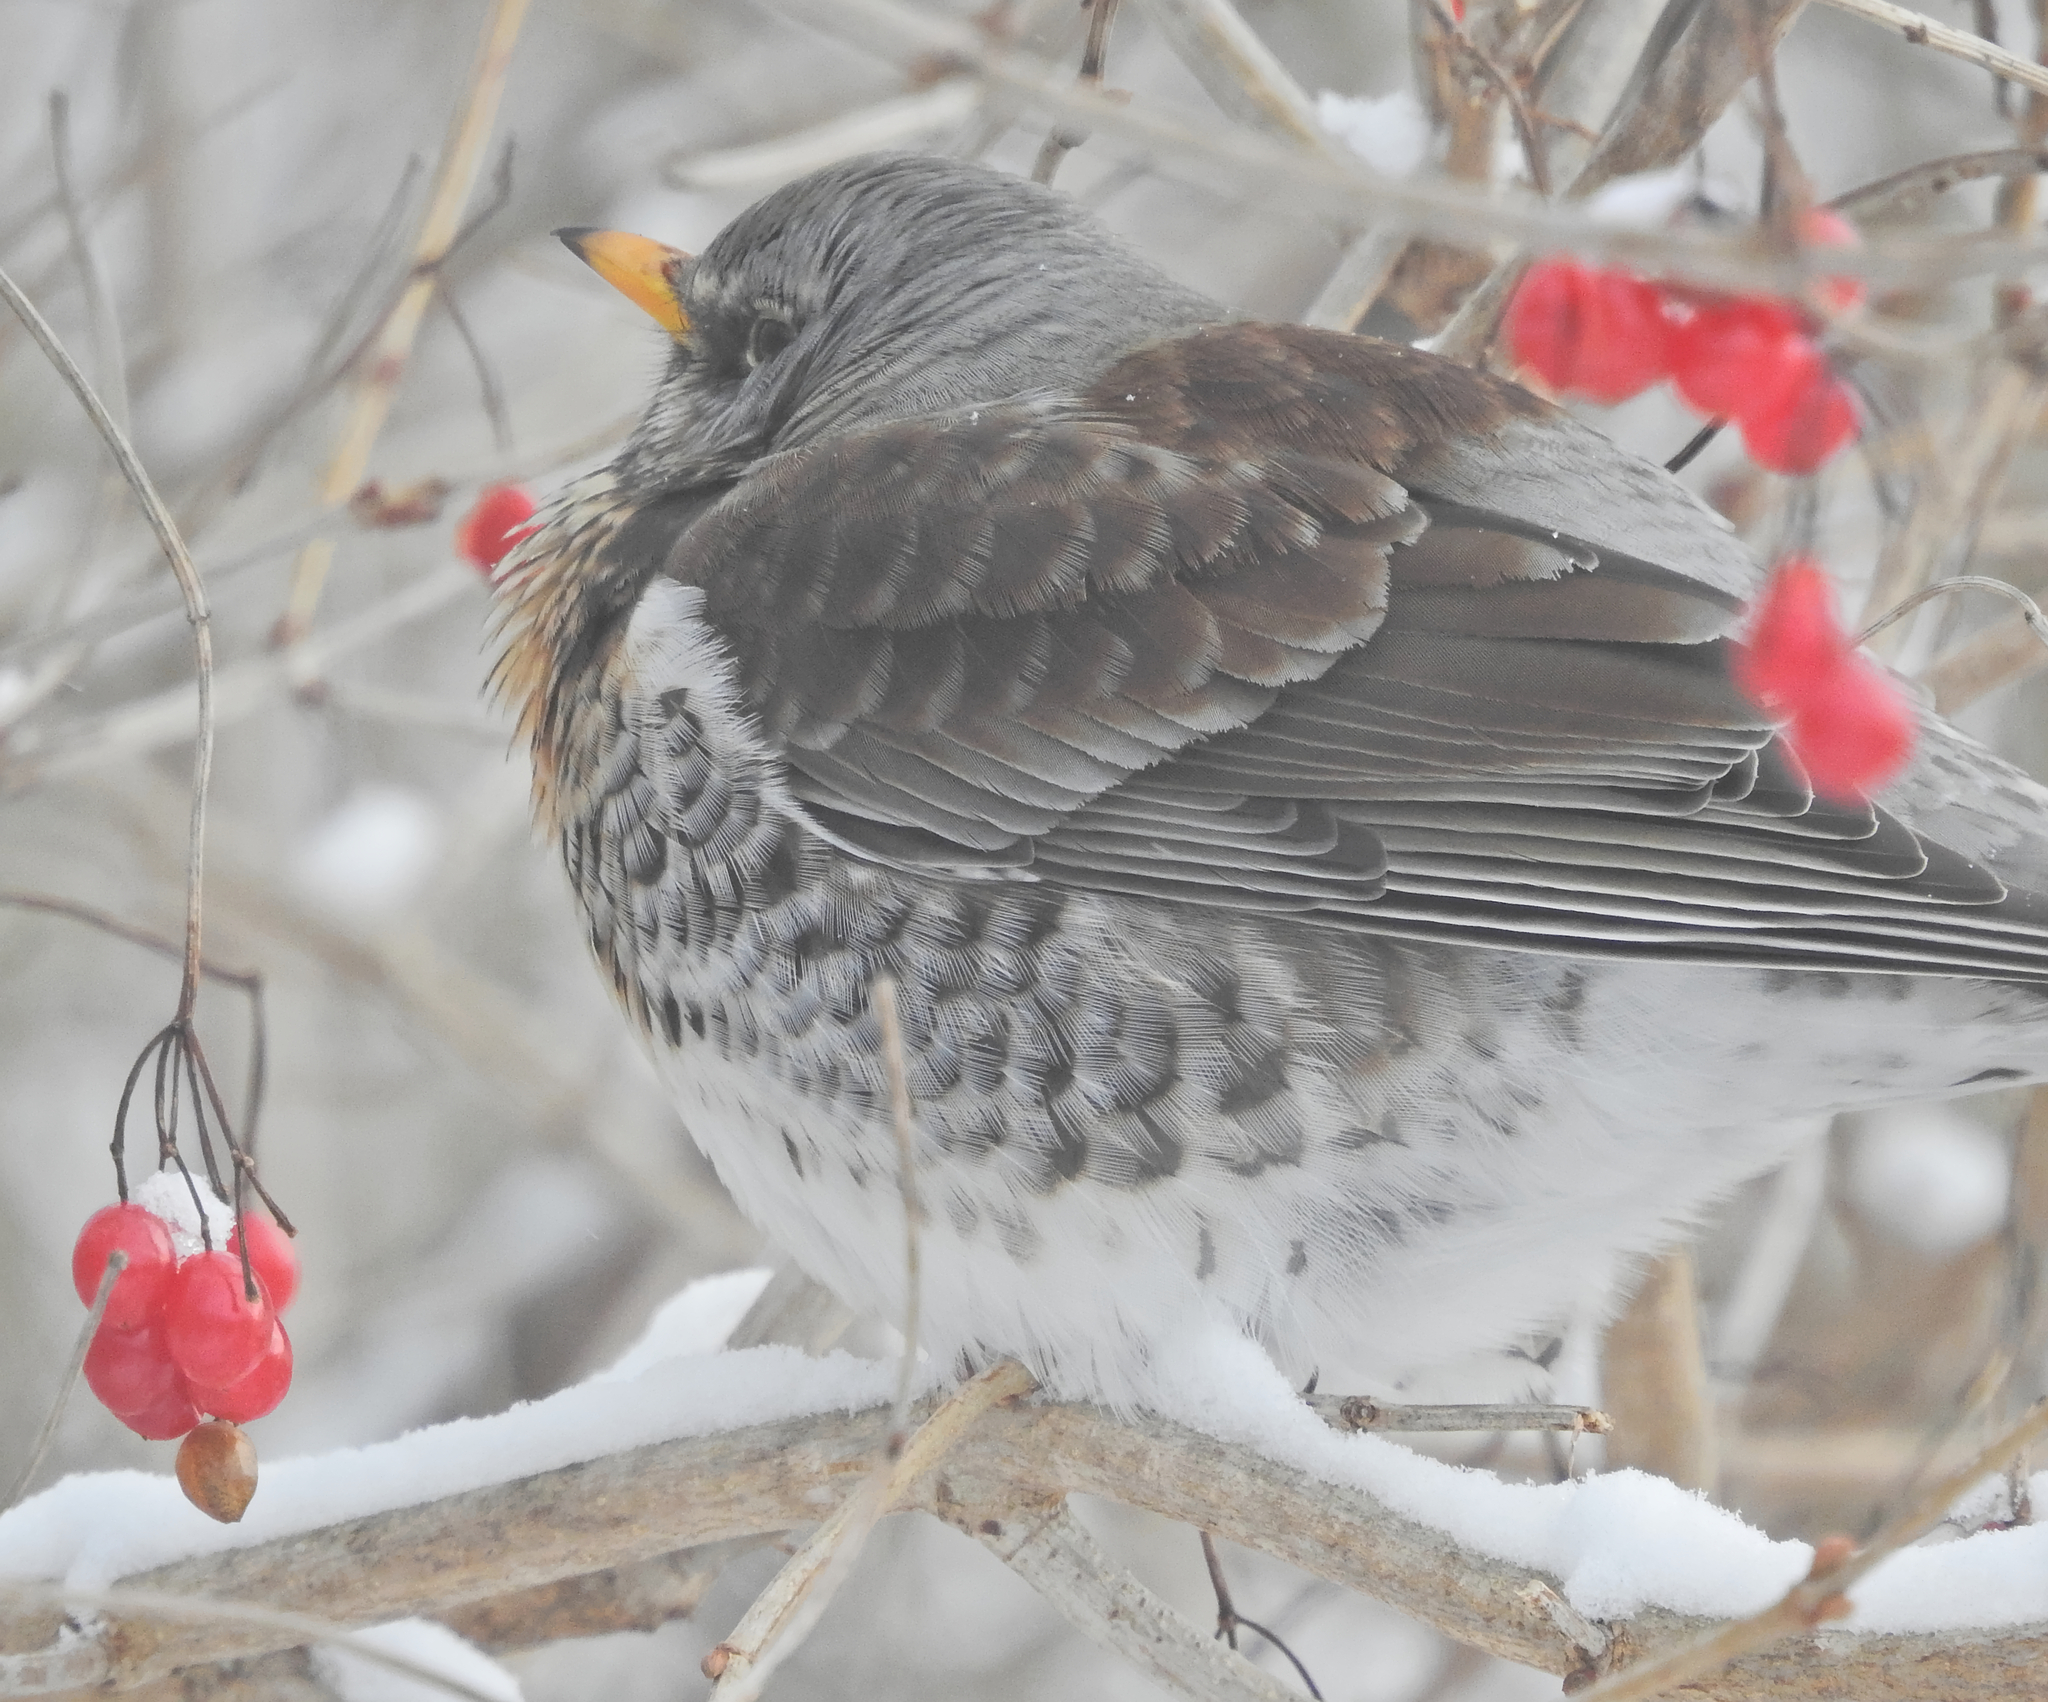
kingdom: Animalia
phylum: Chordata
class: Aves
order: Passeriformes
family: Turdidae
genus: Turdus
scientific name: Turdus pilaris
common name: Fieldfare
